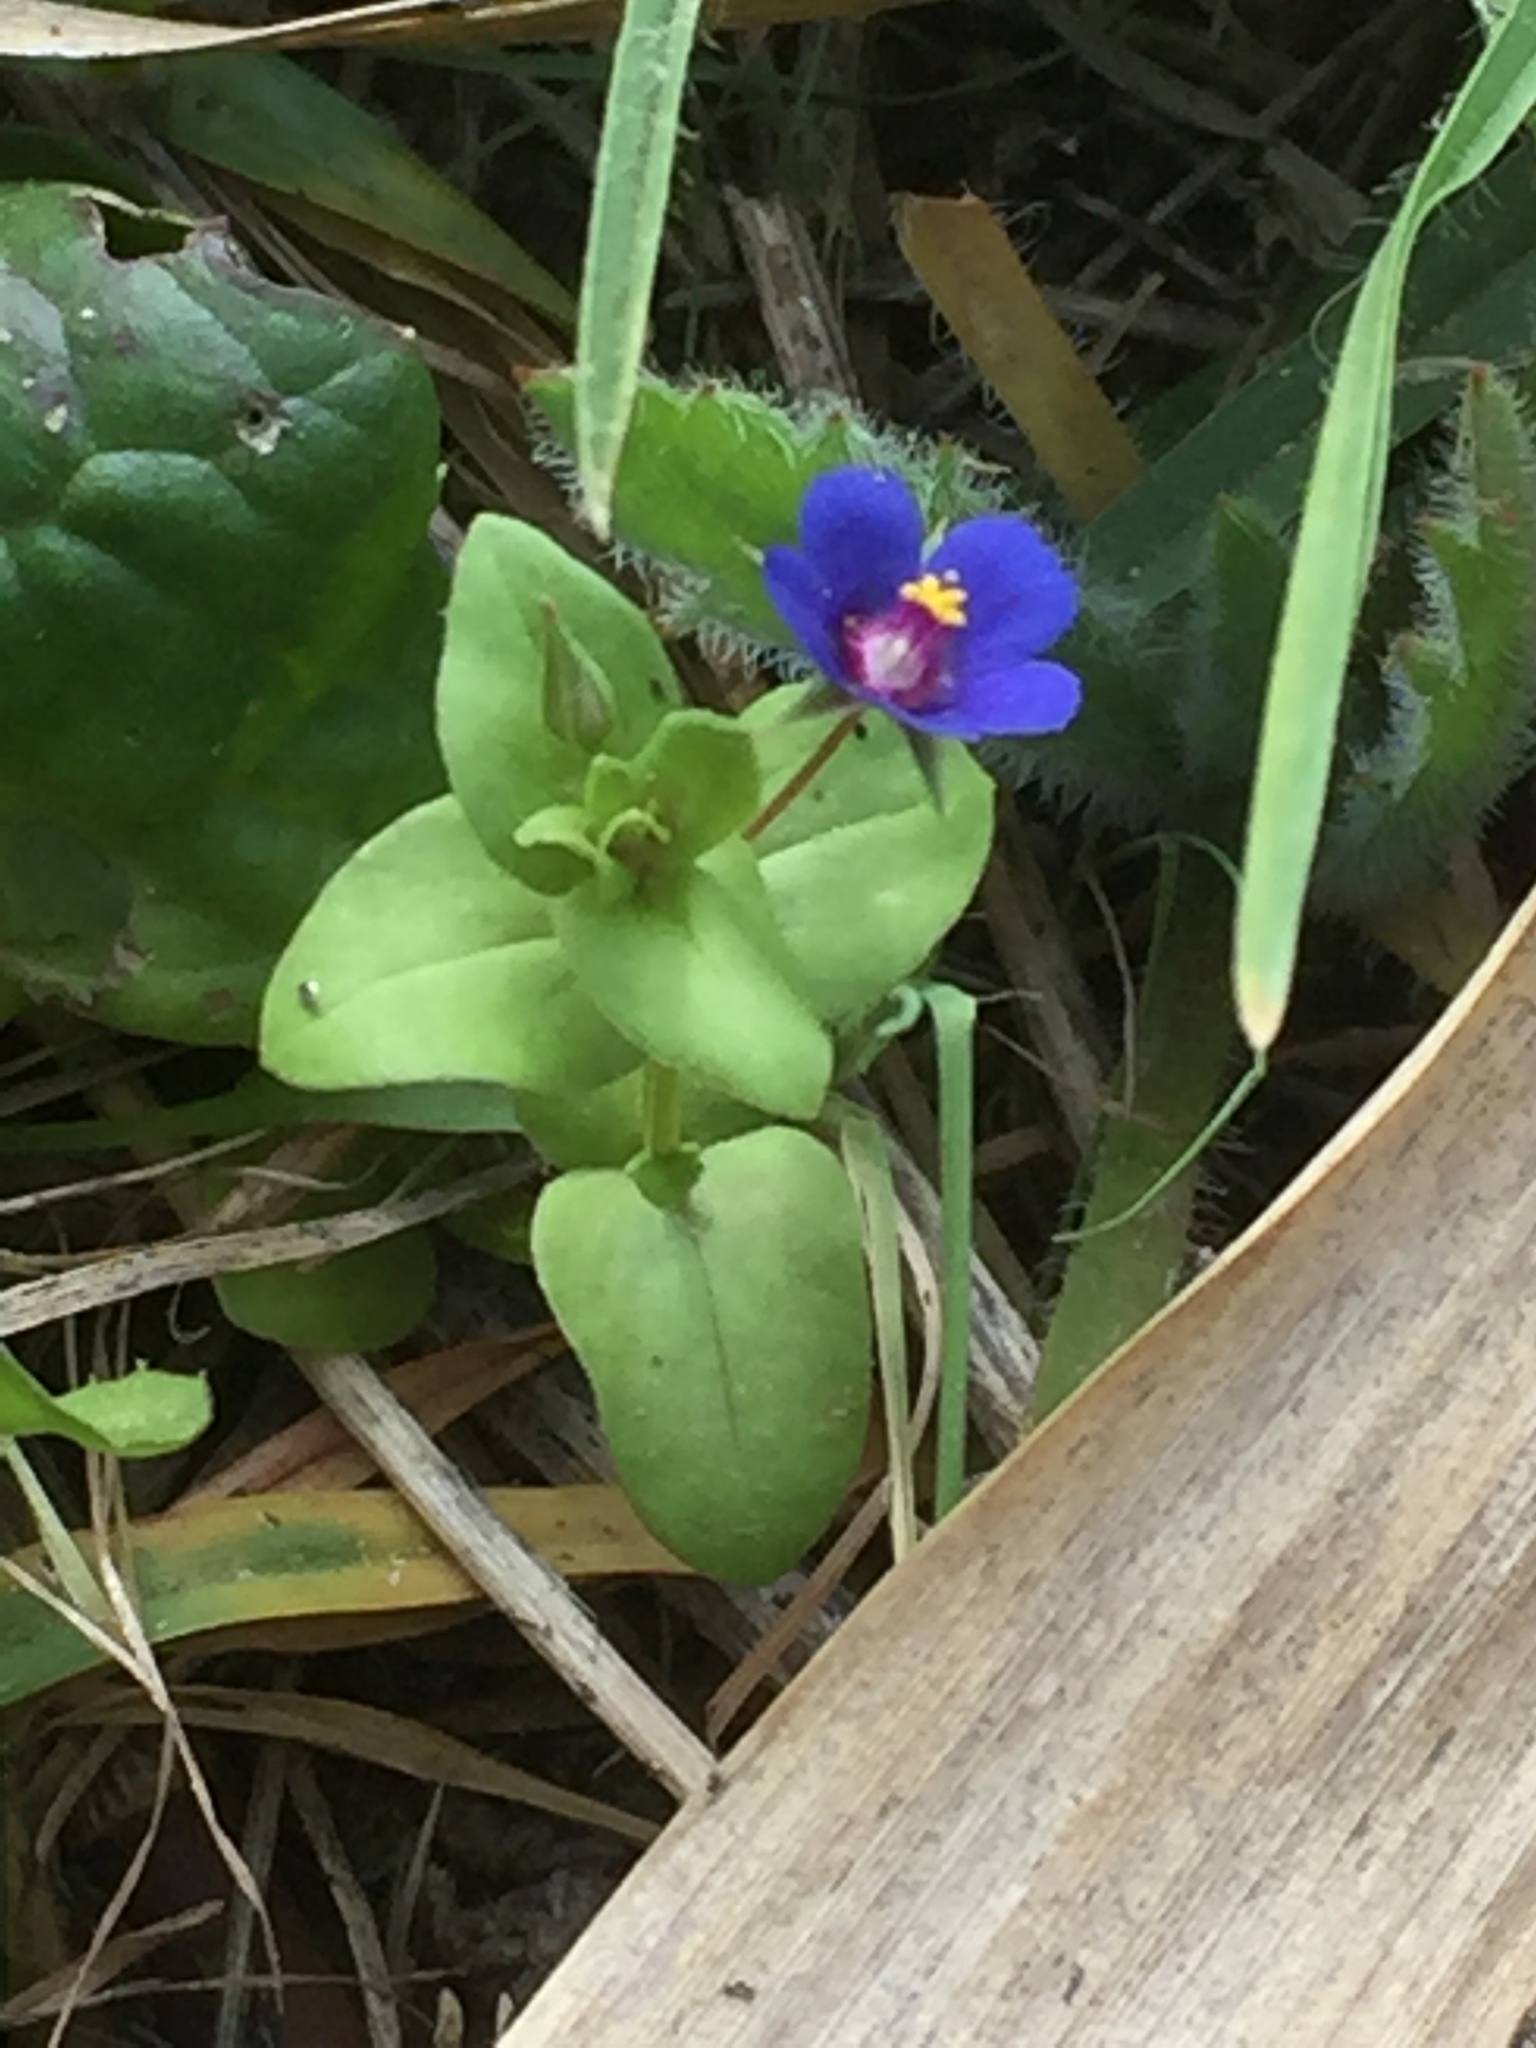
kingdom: Plantae
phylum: Tracheophyta
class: Magnoliopsida
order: Ericales
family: Primulaceae
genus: Lysimachia
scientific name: Lysimachia loeflingii
